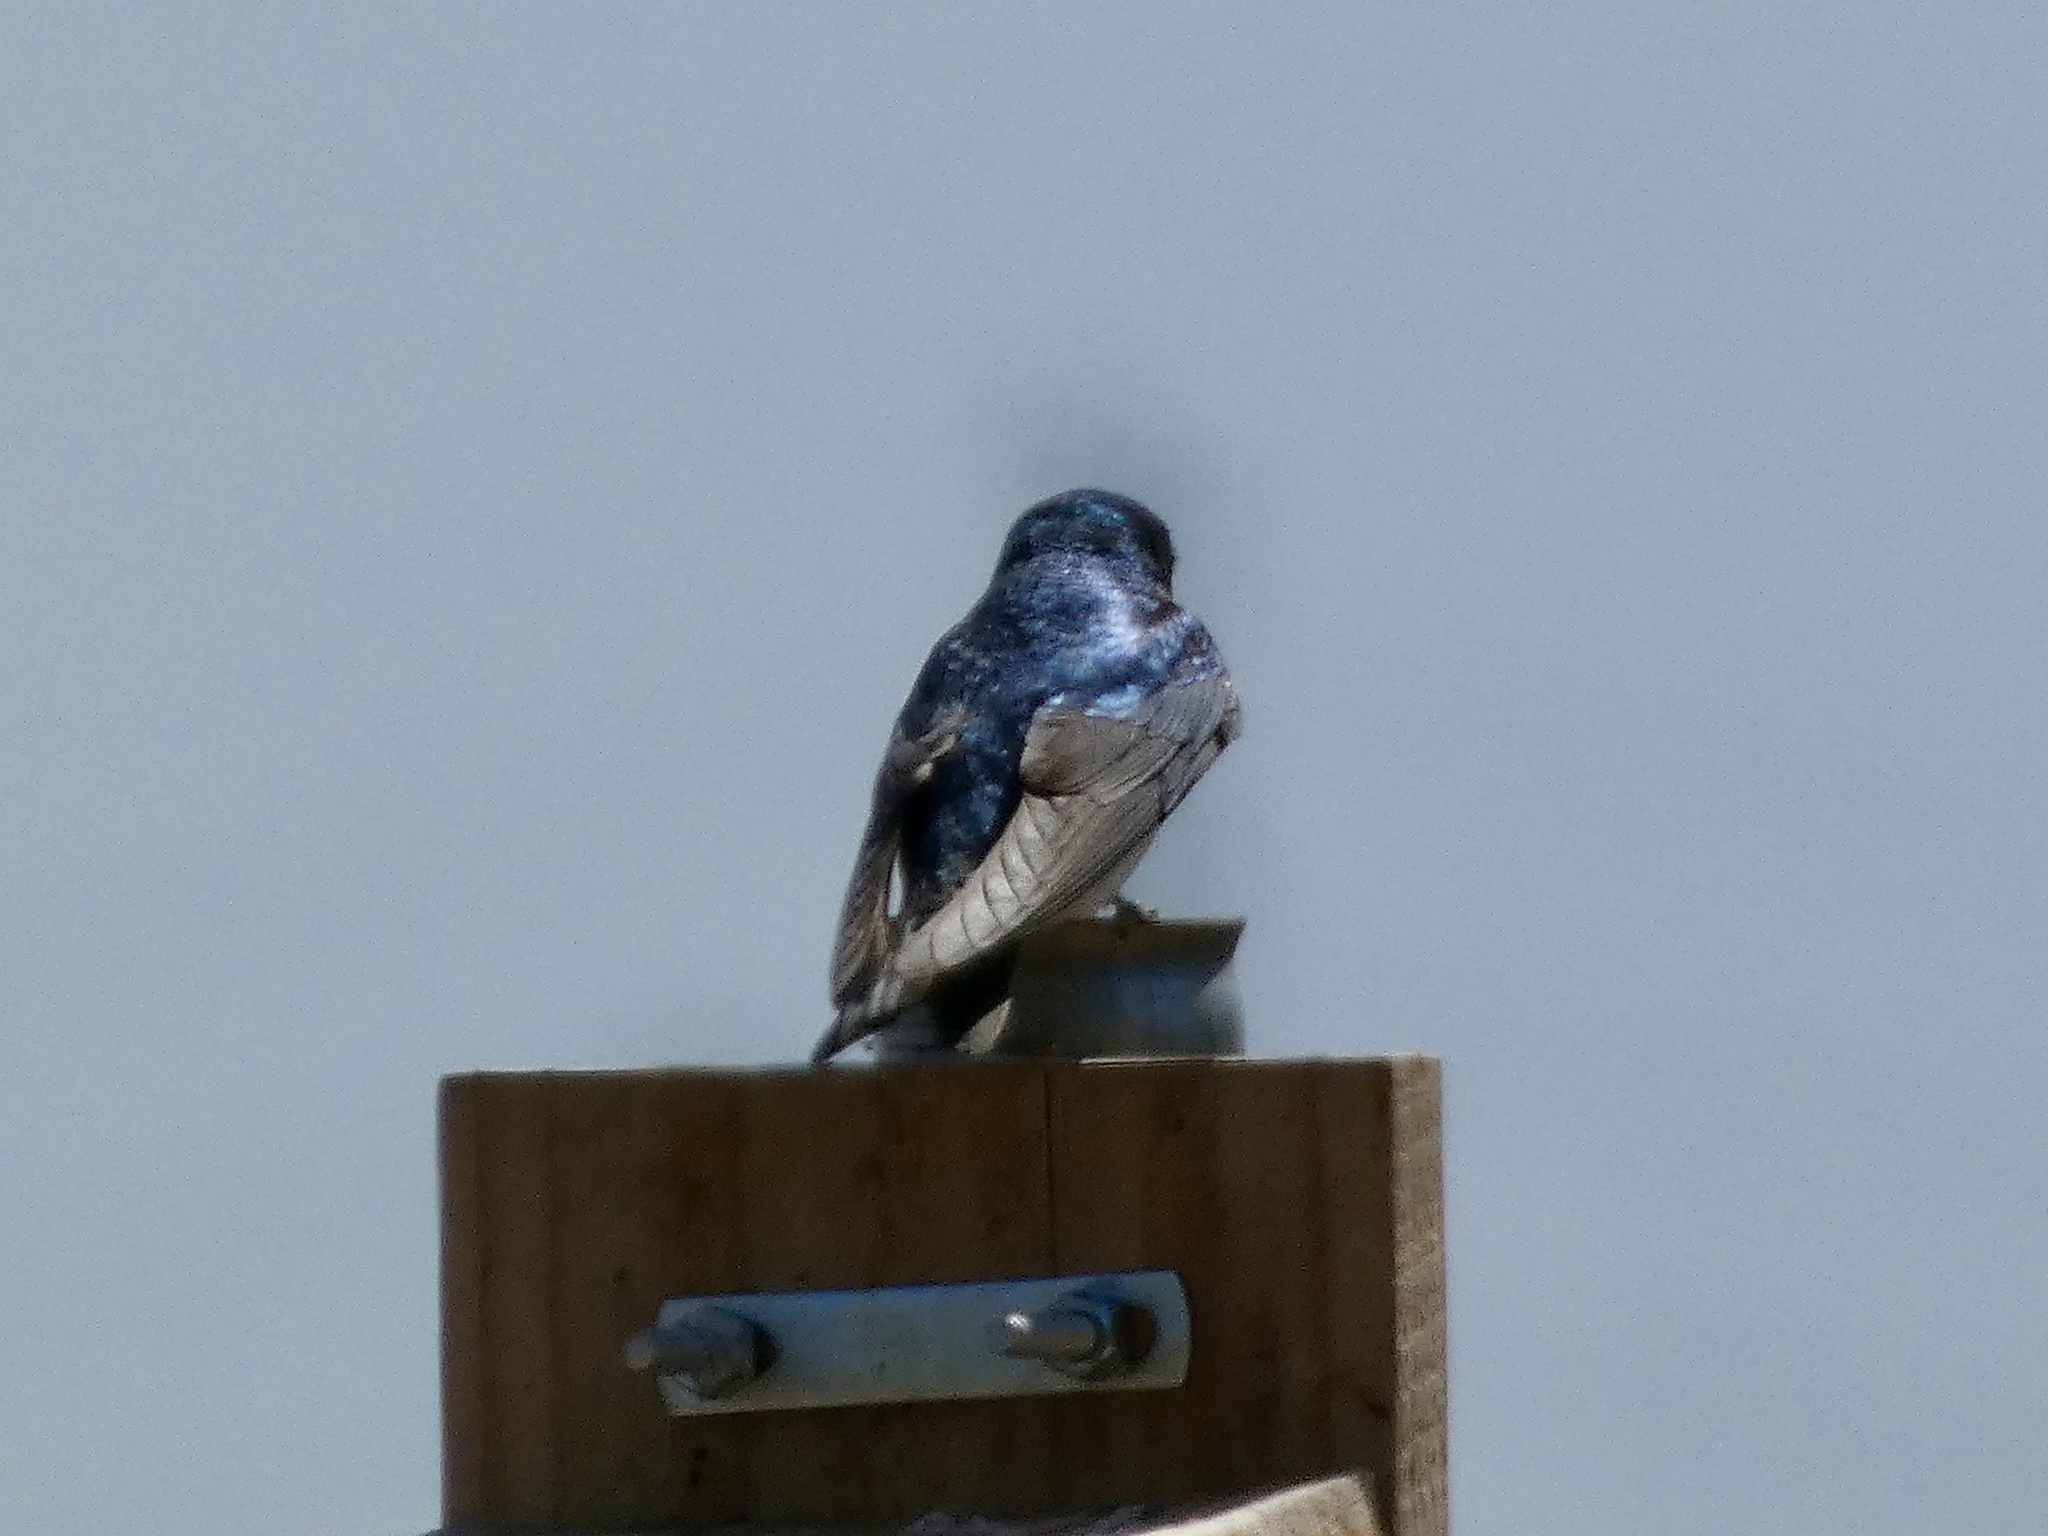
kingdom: Animalia
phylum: Chordata
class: Aves
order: Passeriformes
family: Hirundinidae
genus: Tachycineta
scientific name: Tachycineta bicolor
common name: Tree swallow
